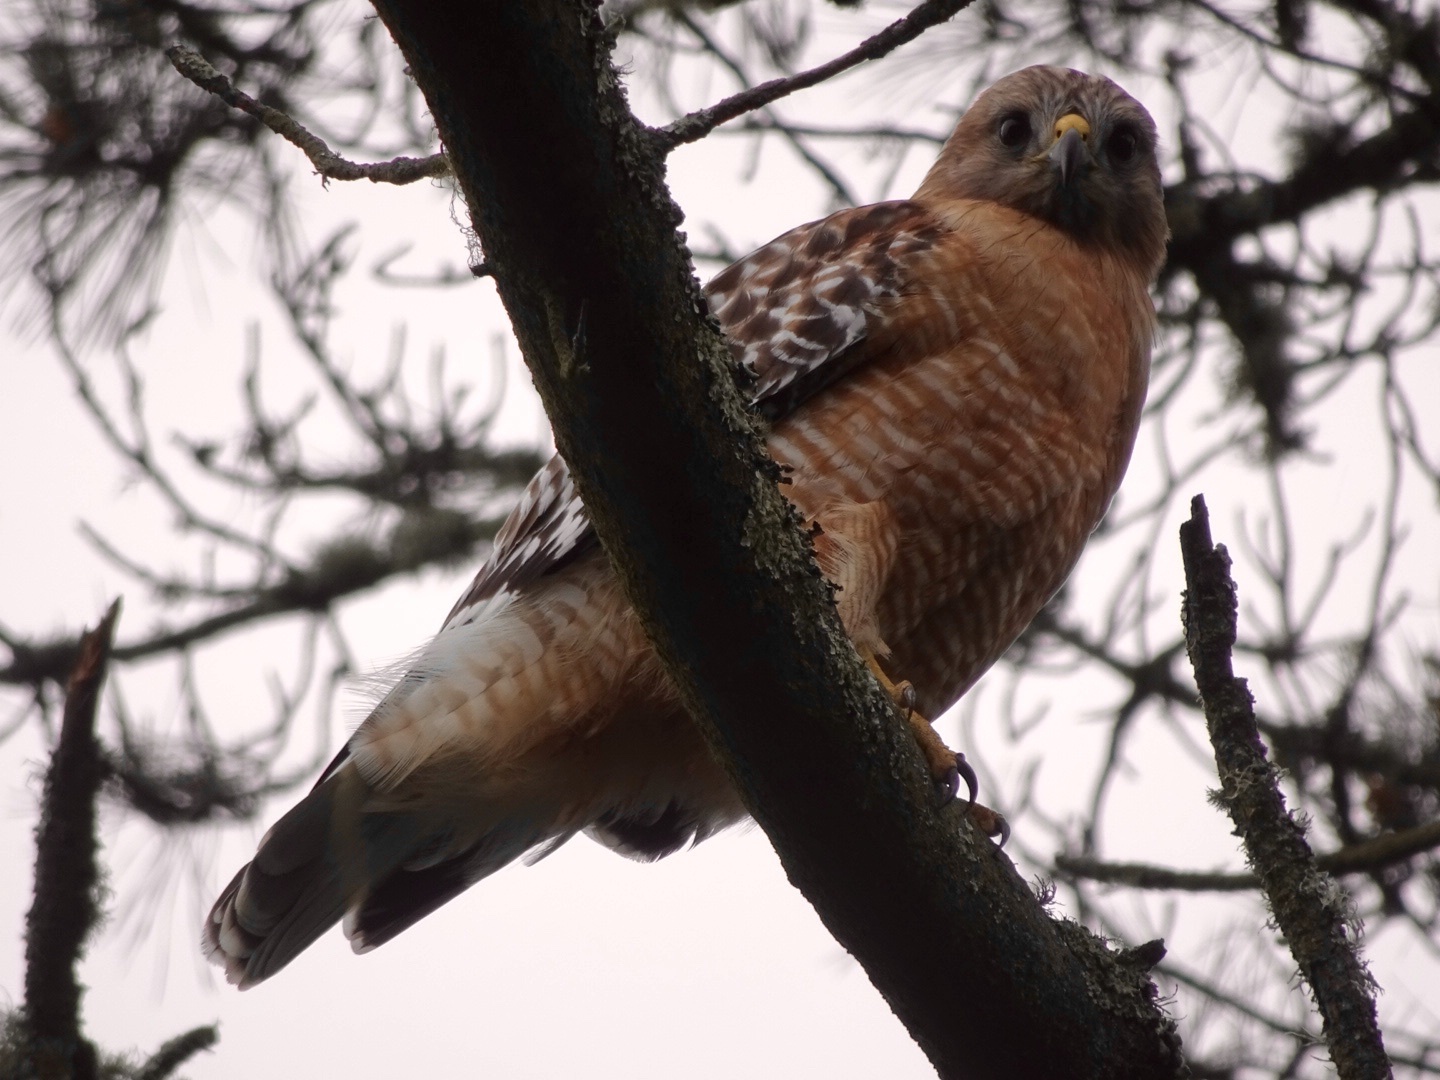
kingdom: Animalia
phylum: Chordata
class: Aves
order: Accipitriformes
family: Accipitridae
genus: Buteo
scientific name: Buteo lineatus
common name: Red-shouldered hawk
